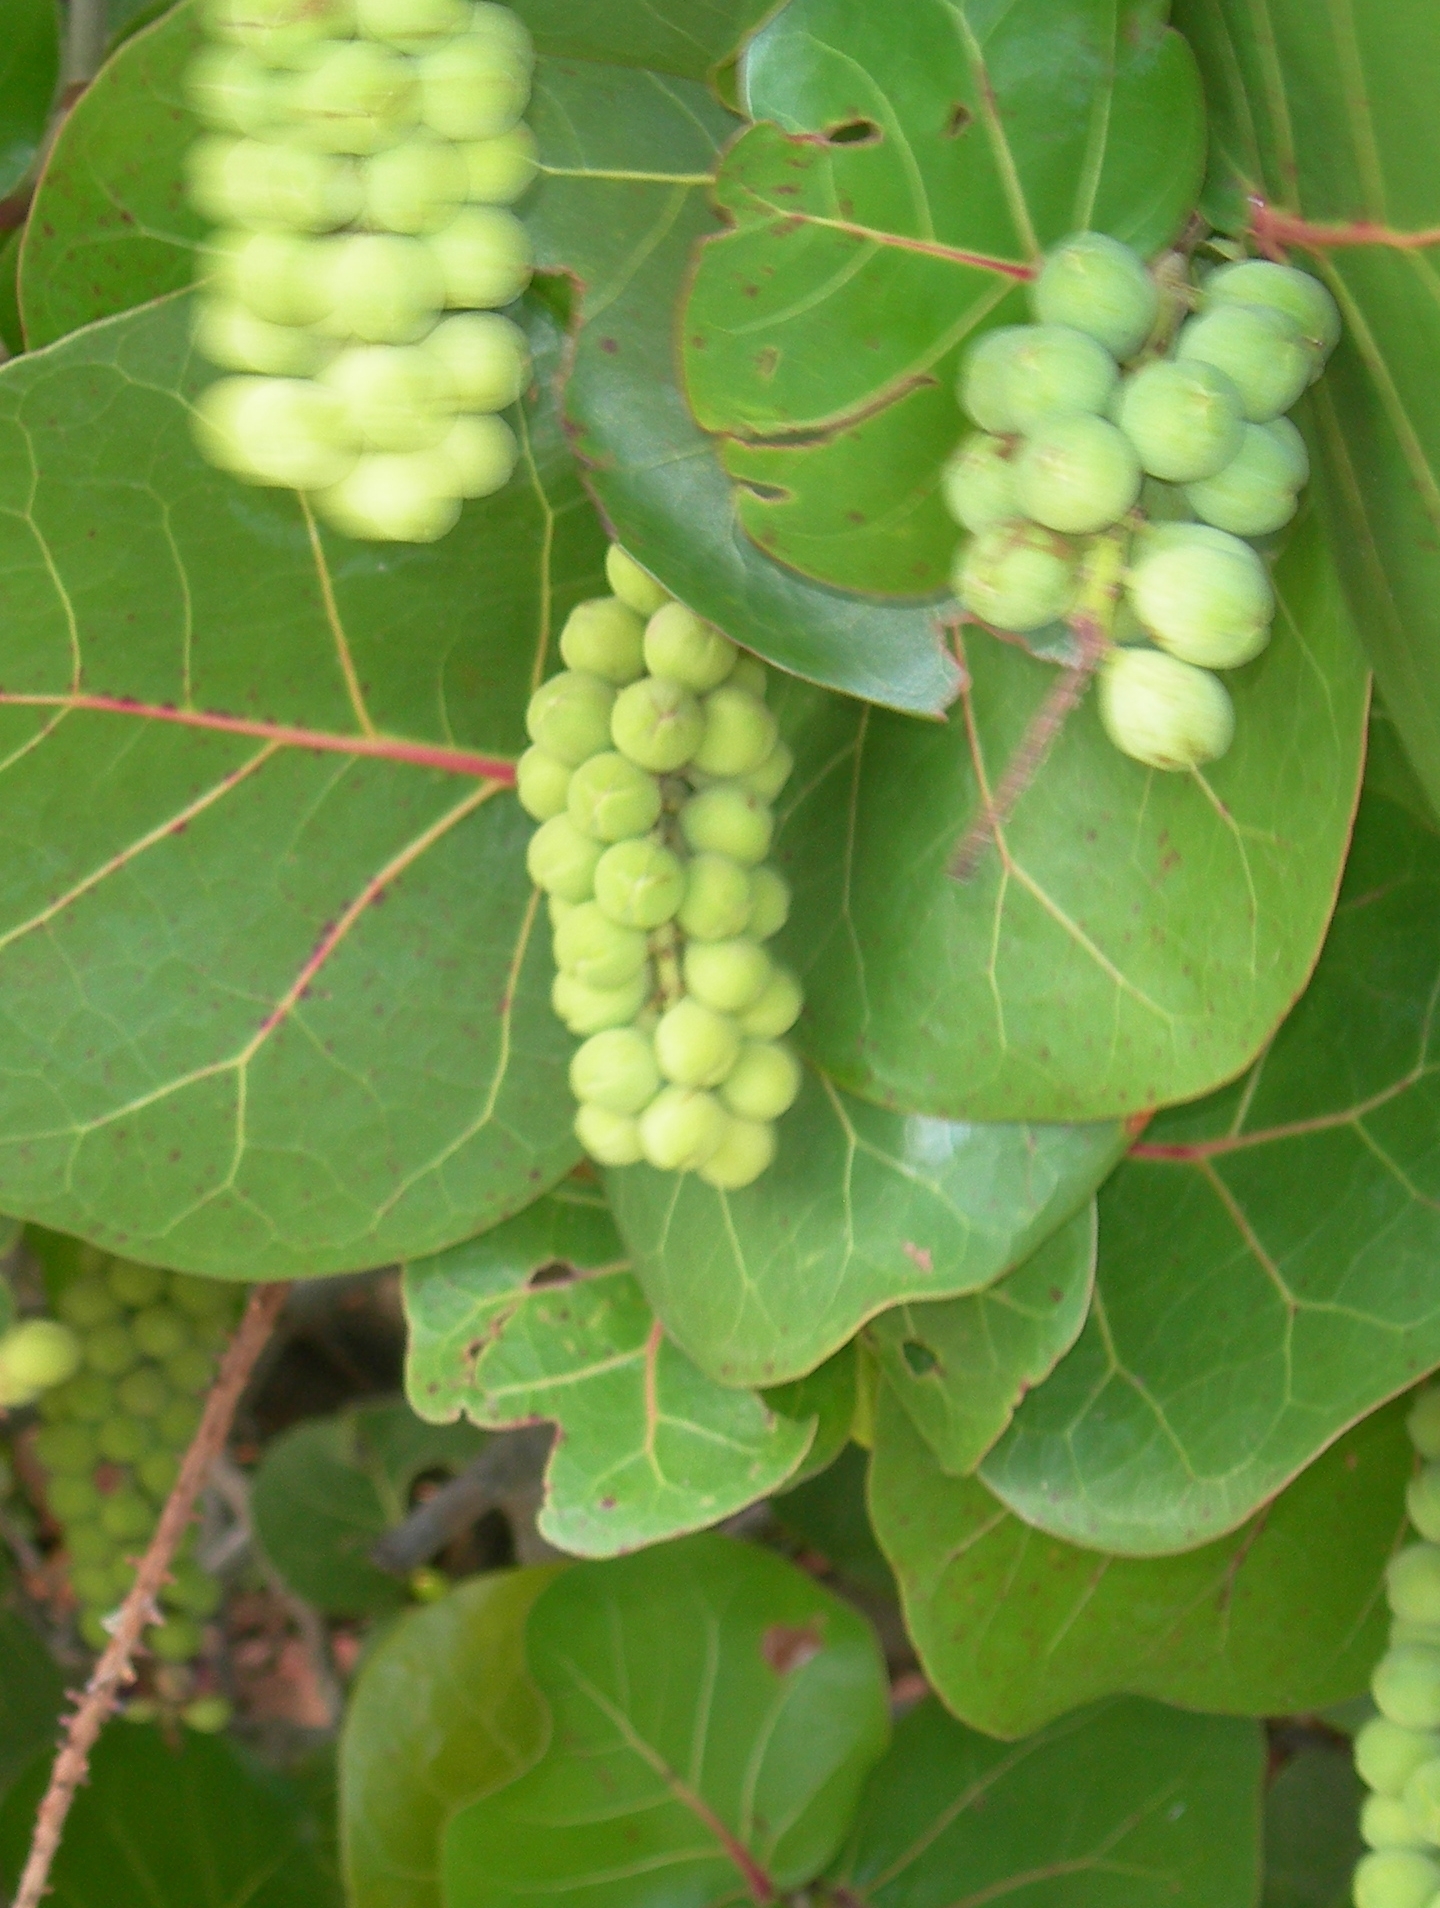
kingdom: Plantae
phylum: Tracheophyta
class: Magnoliopsida
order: Caryophyllales
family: Polygonaceae
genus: Coccoloba
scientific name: Coccoloba uvifera
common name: Seagrape
